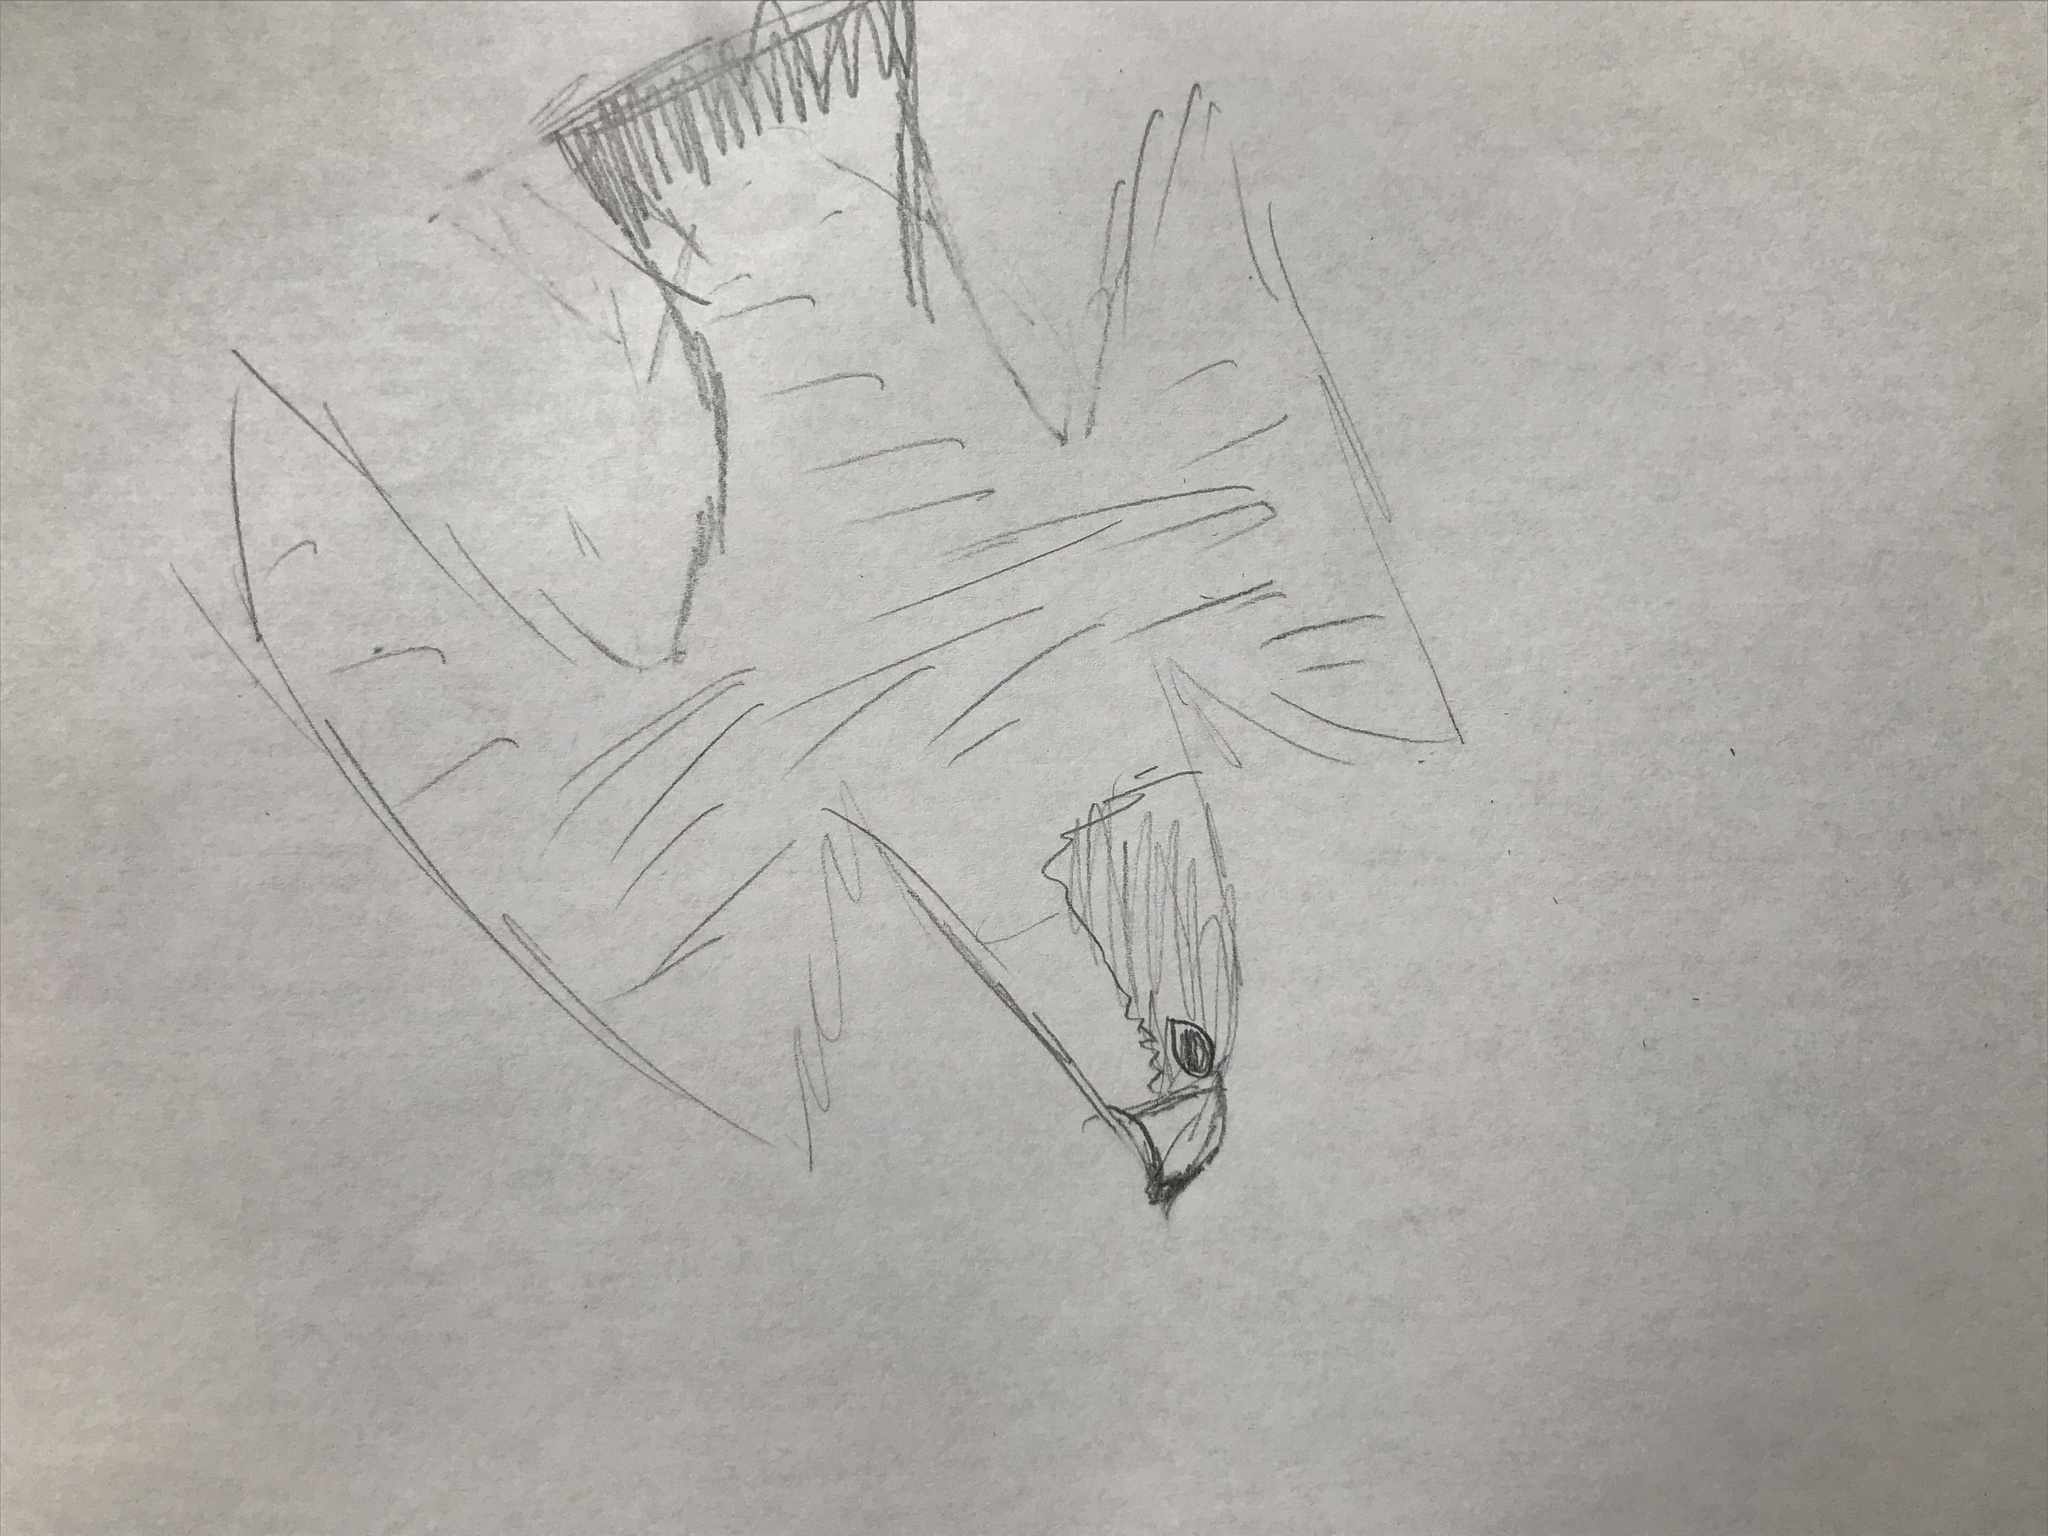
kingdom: Animalia
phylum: Chordata
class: Aves
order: Falconiformes
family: Falconidae
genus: Falco
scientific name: Falco peregrinus
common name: Peregrine falcon
